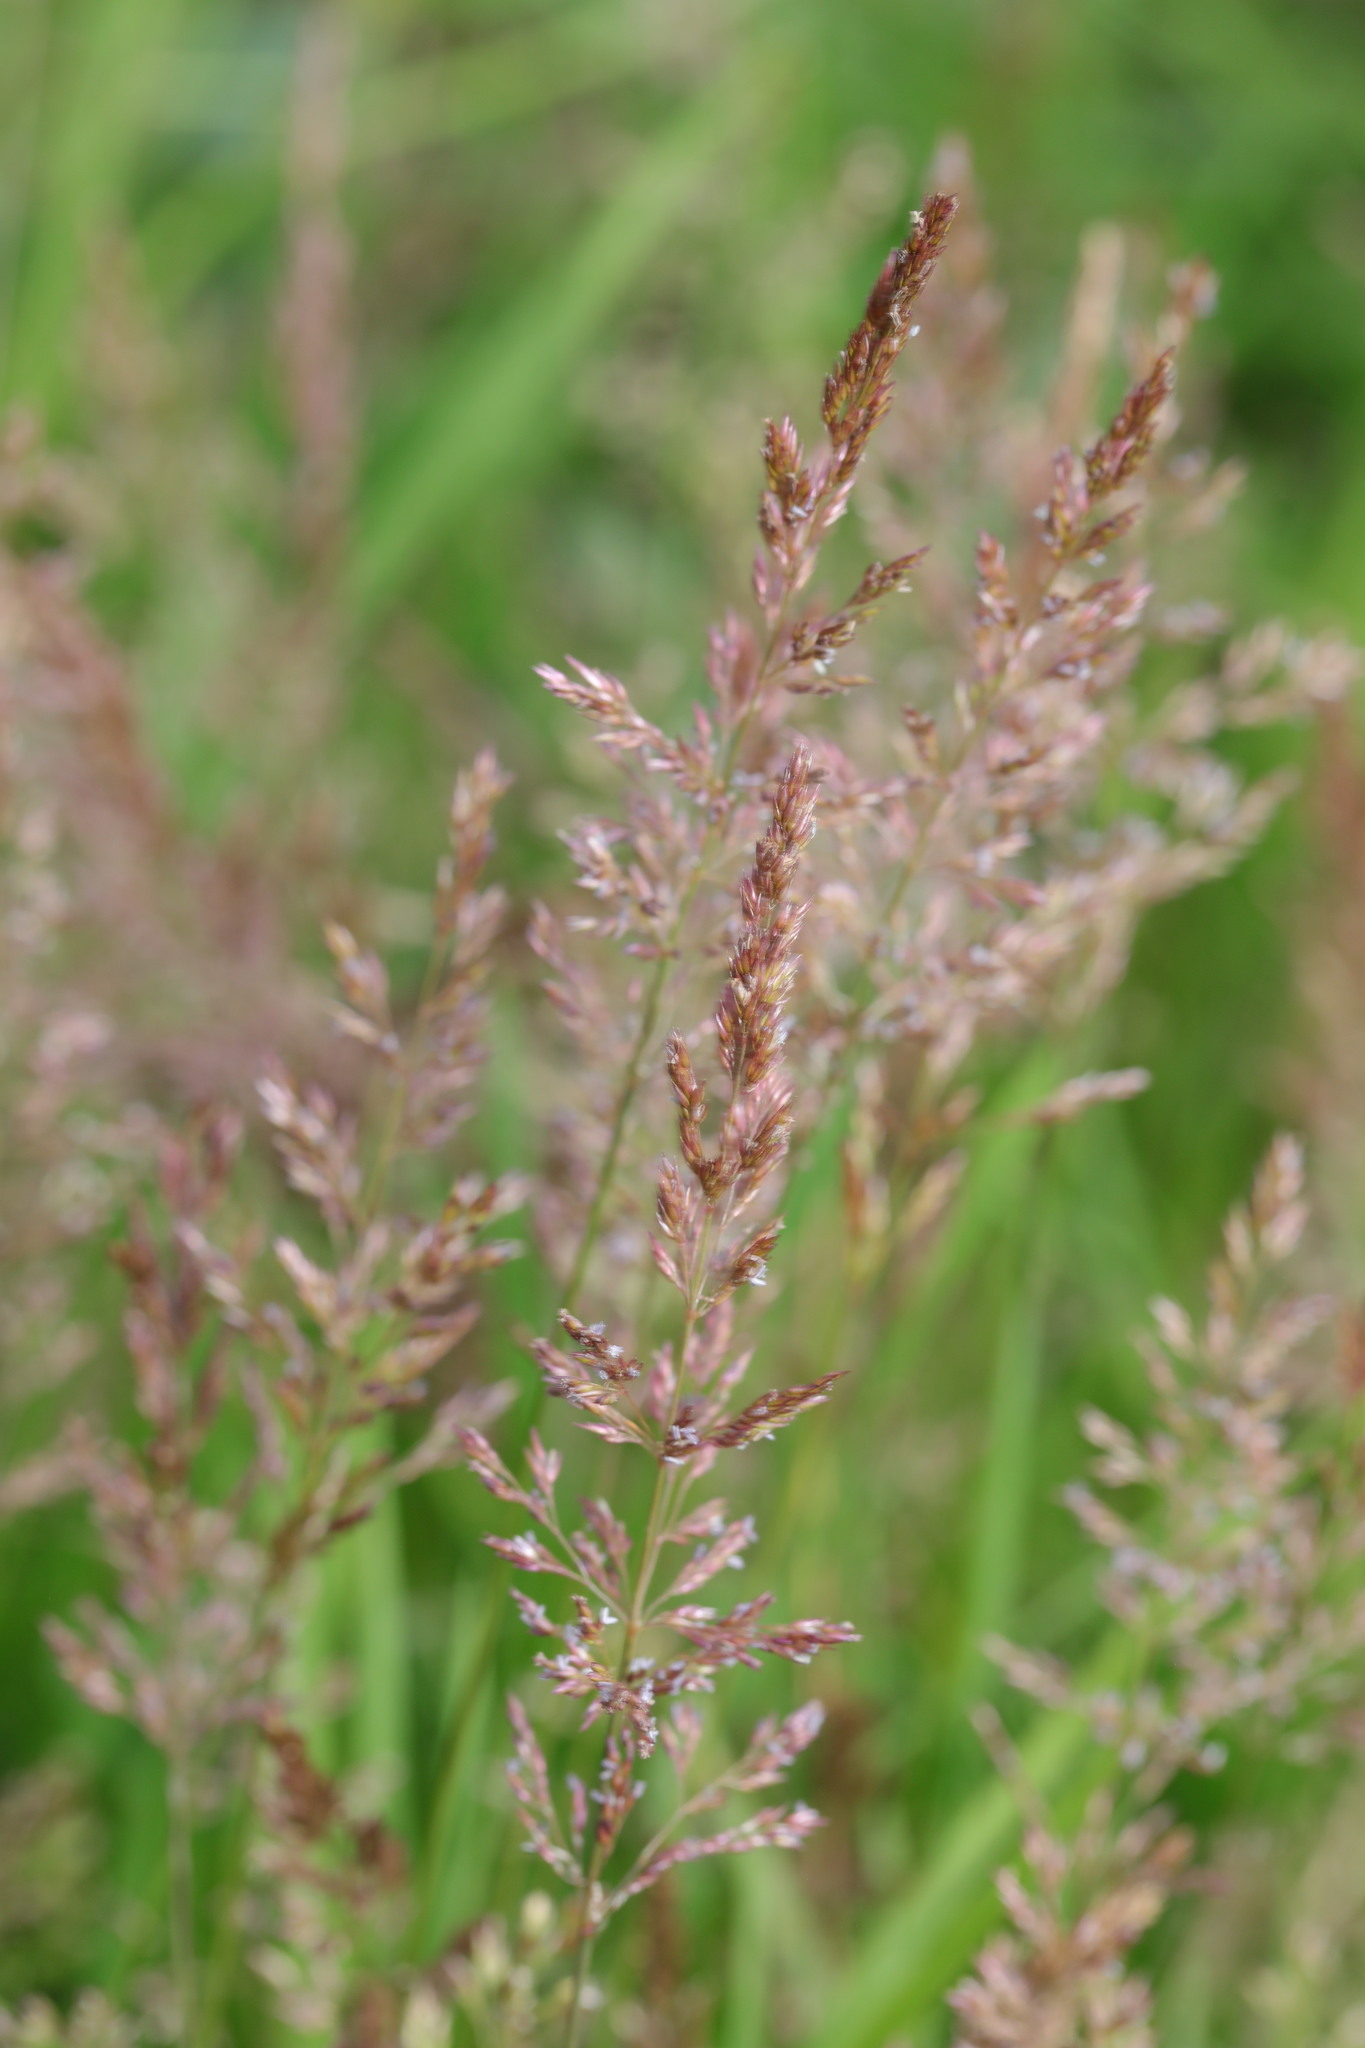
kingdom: Plantae
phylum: Tracheophyta
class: Liliopsida
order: Poales
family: Poaceae
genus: Agrostis
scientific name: Agrostis stolonifera
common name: Creeping bentgrass
